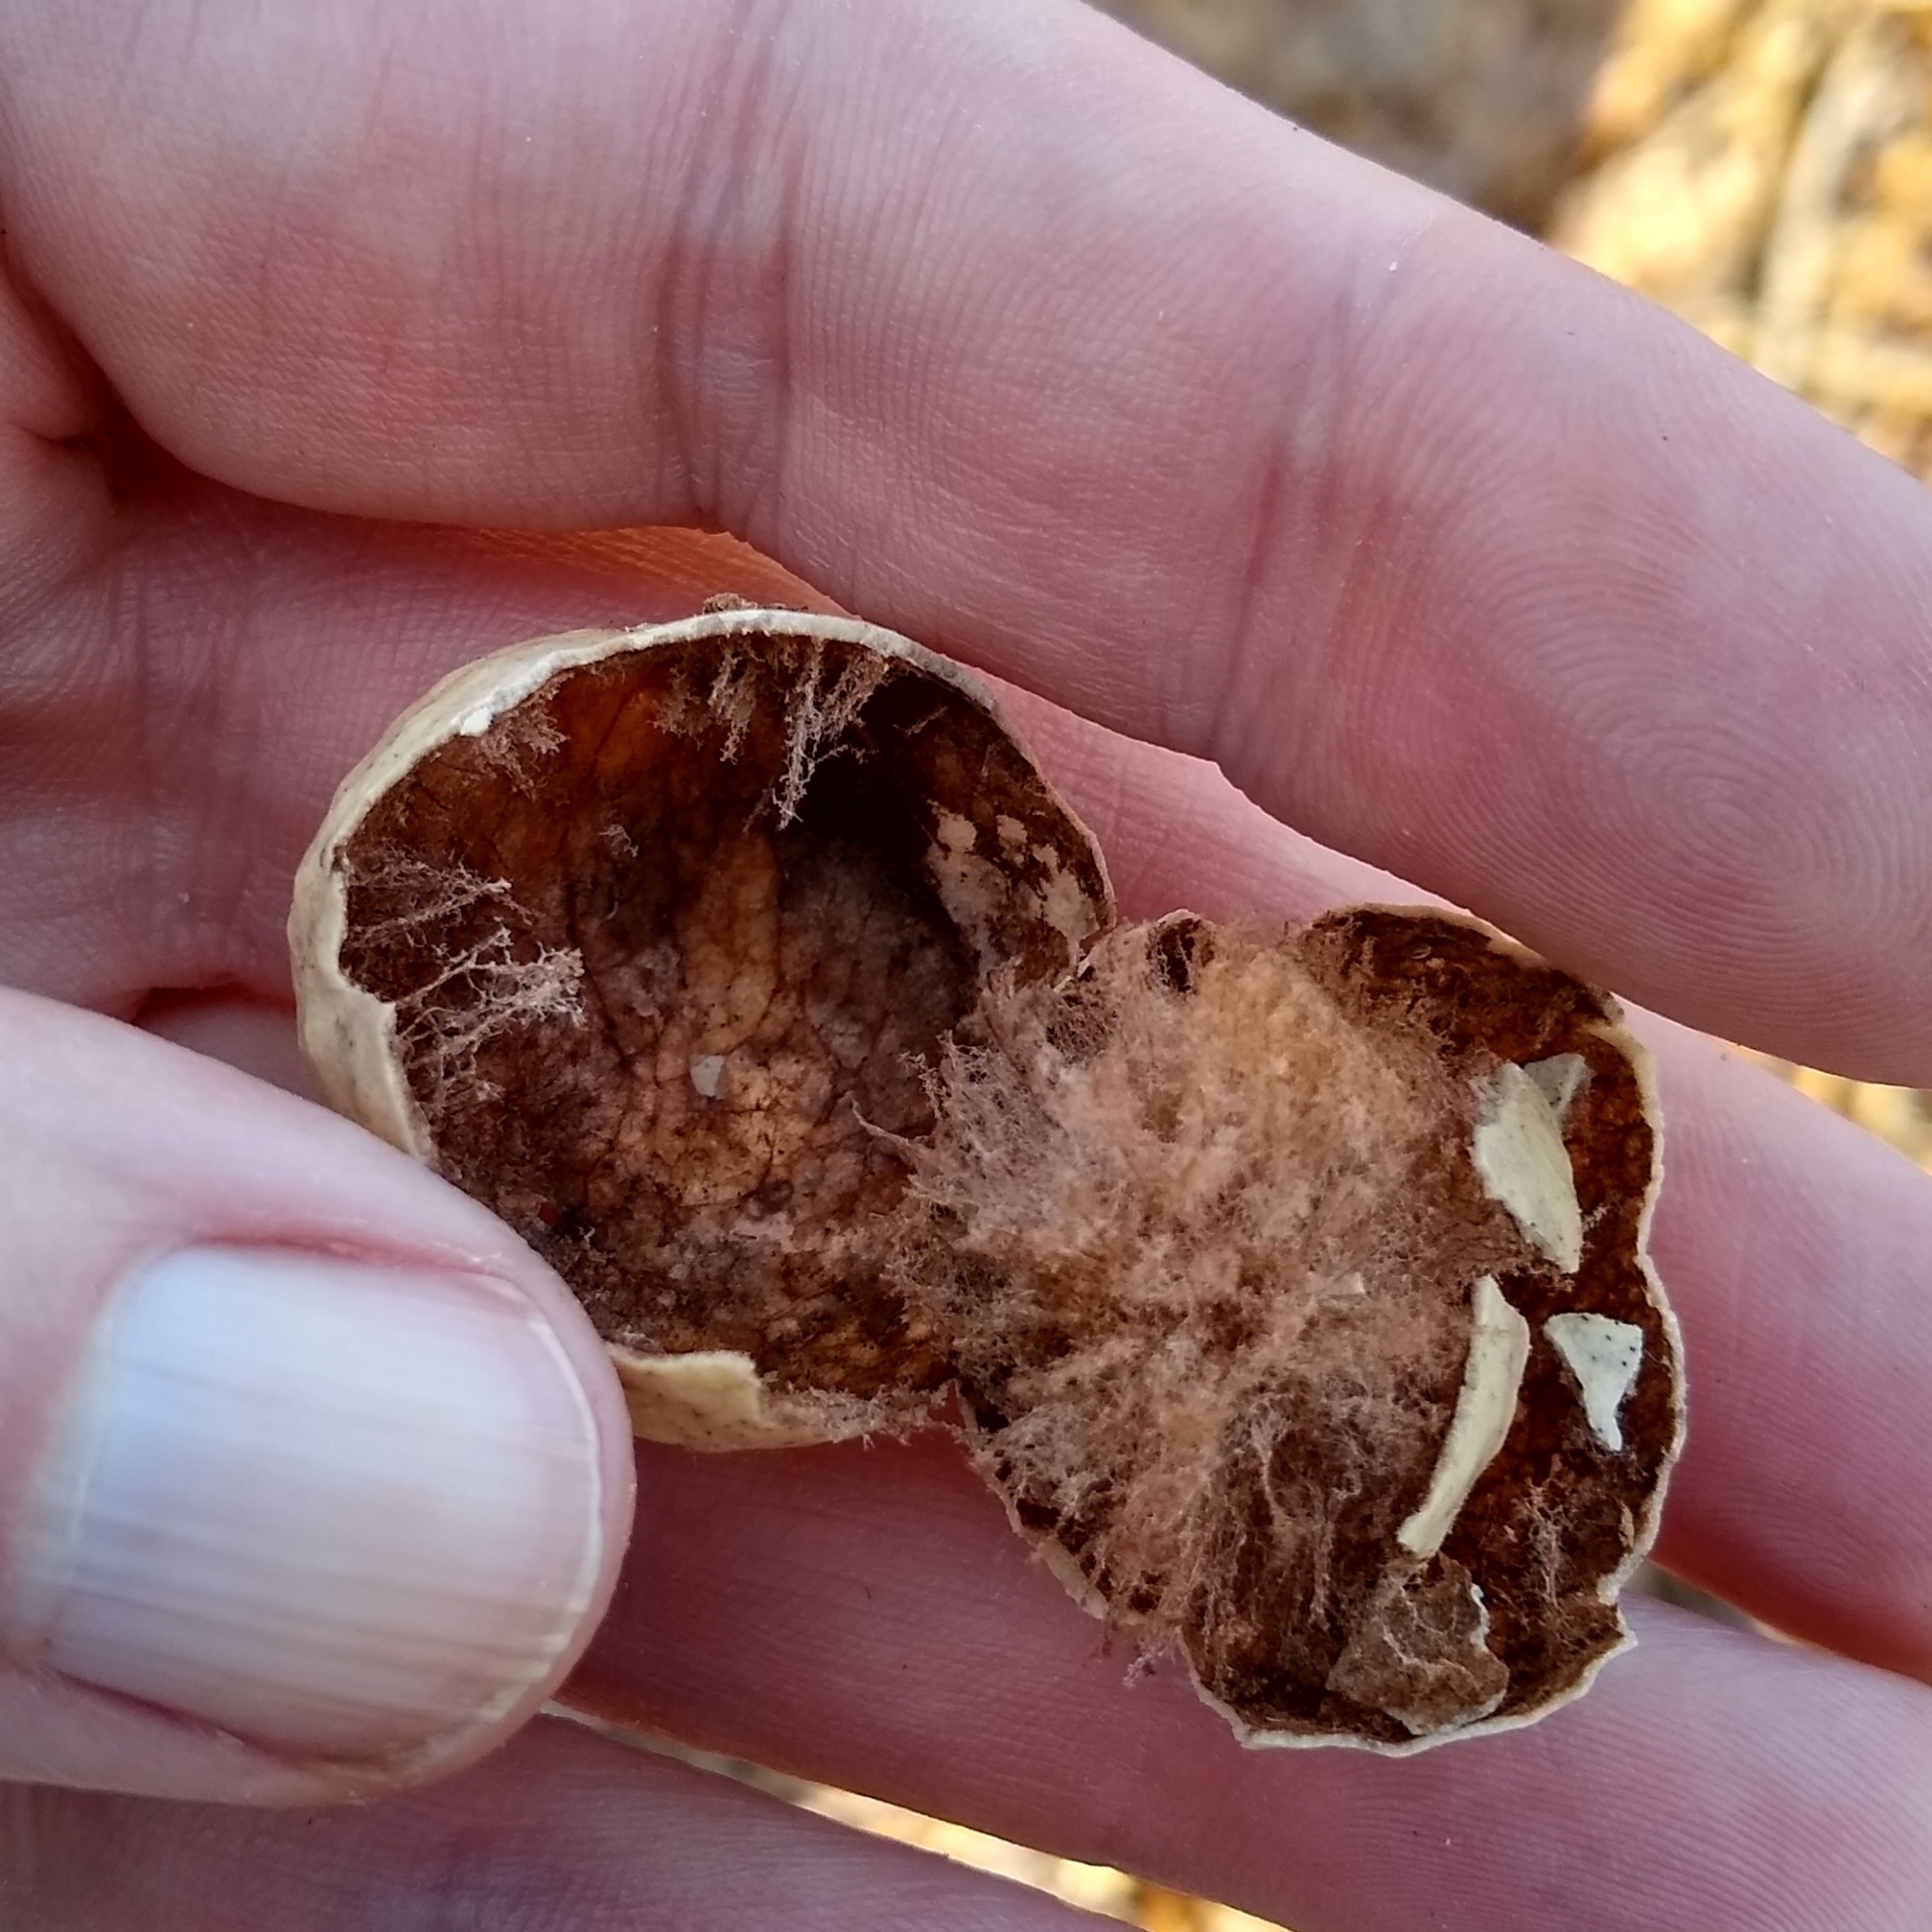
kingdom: Animalia
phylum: Arthropoda
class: Insecta
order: Hymenoptera
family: Cynipidae
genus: Amphibolips
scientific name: Amphibolips
